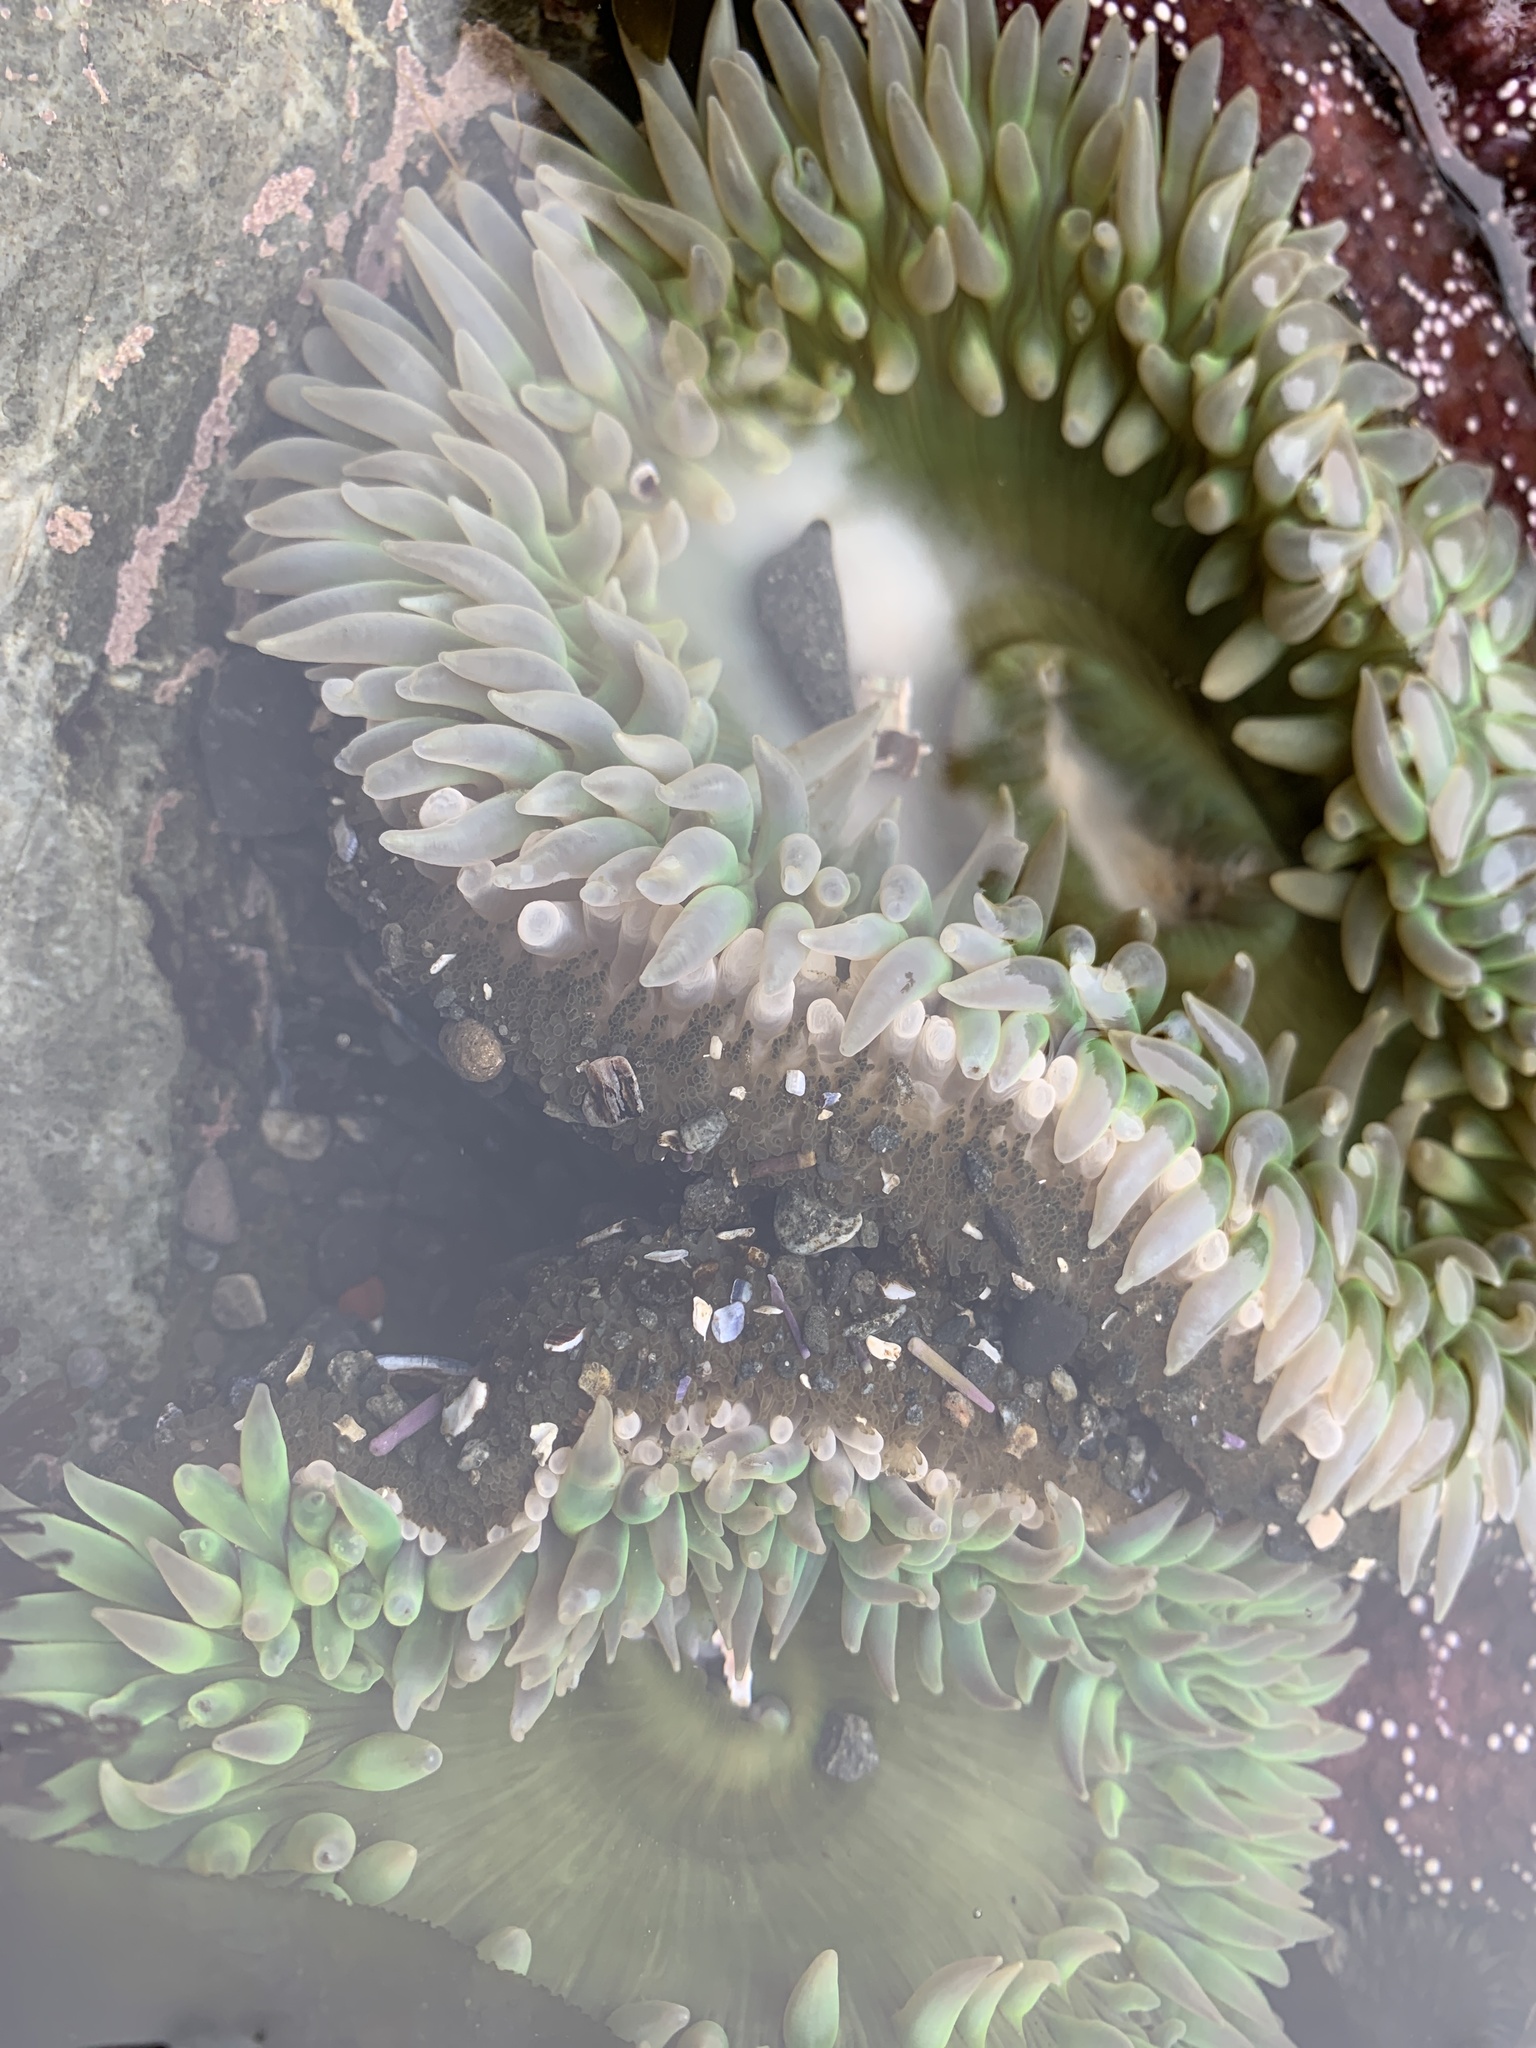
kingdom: Animalia
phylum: Cnidaria
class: Anthozoa
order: Actiniaria
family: Actiniidae
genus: Anthopleura
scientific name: Anthopleura xanthogrammica
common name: Giant green anemone
